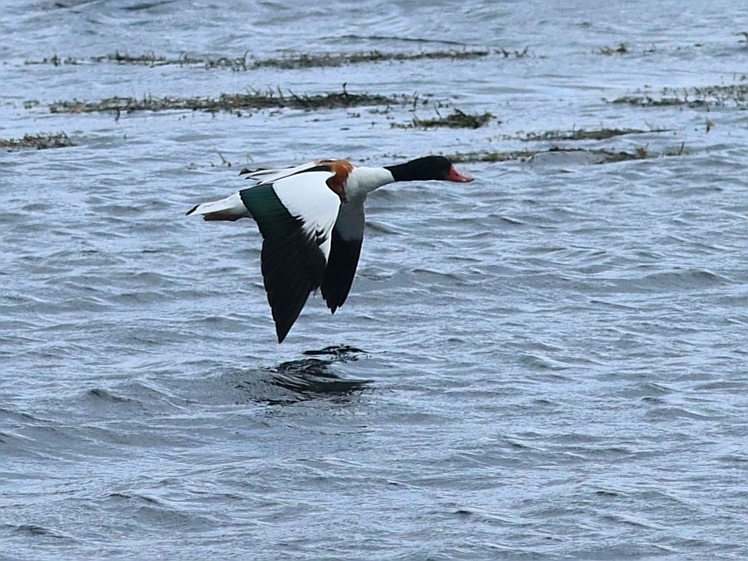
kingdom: Animalia
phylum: Chordata
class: Aves
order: Anseriformes
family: Anatidae
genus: Tadorna
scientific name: Tadorna tadorna
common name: Common shelduck
